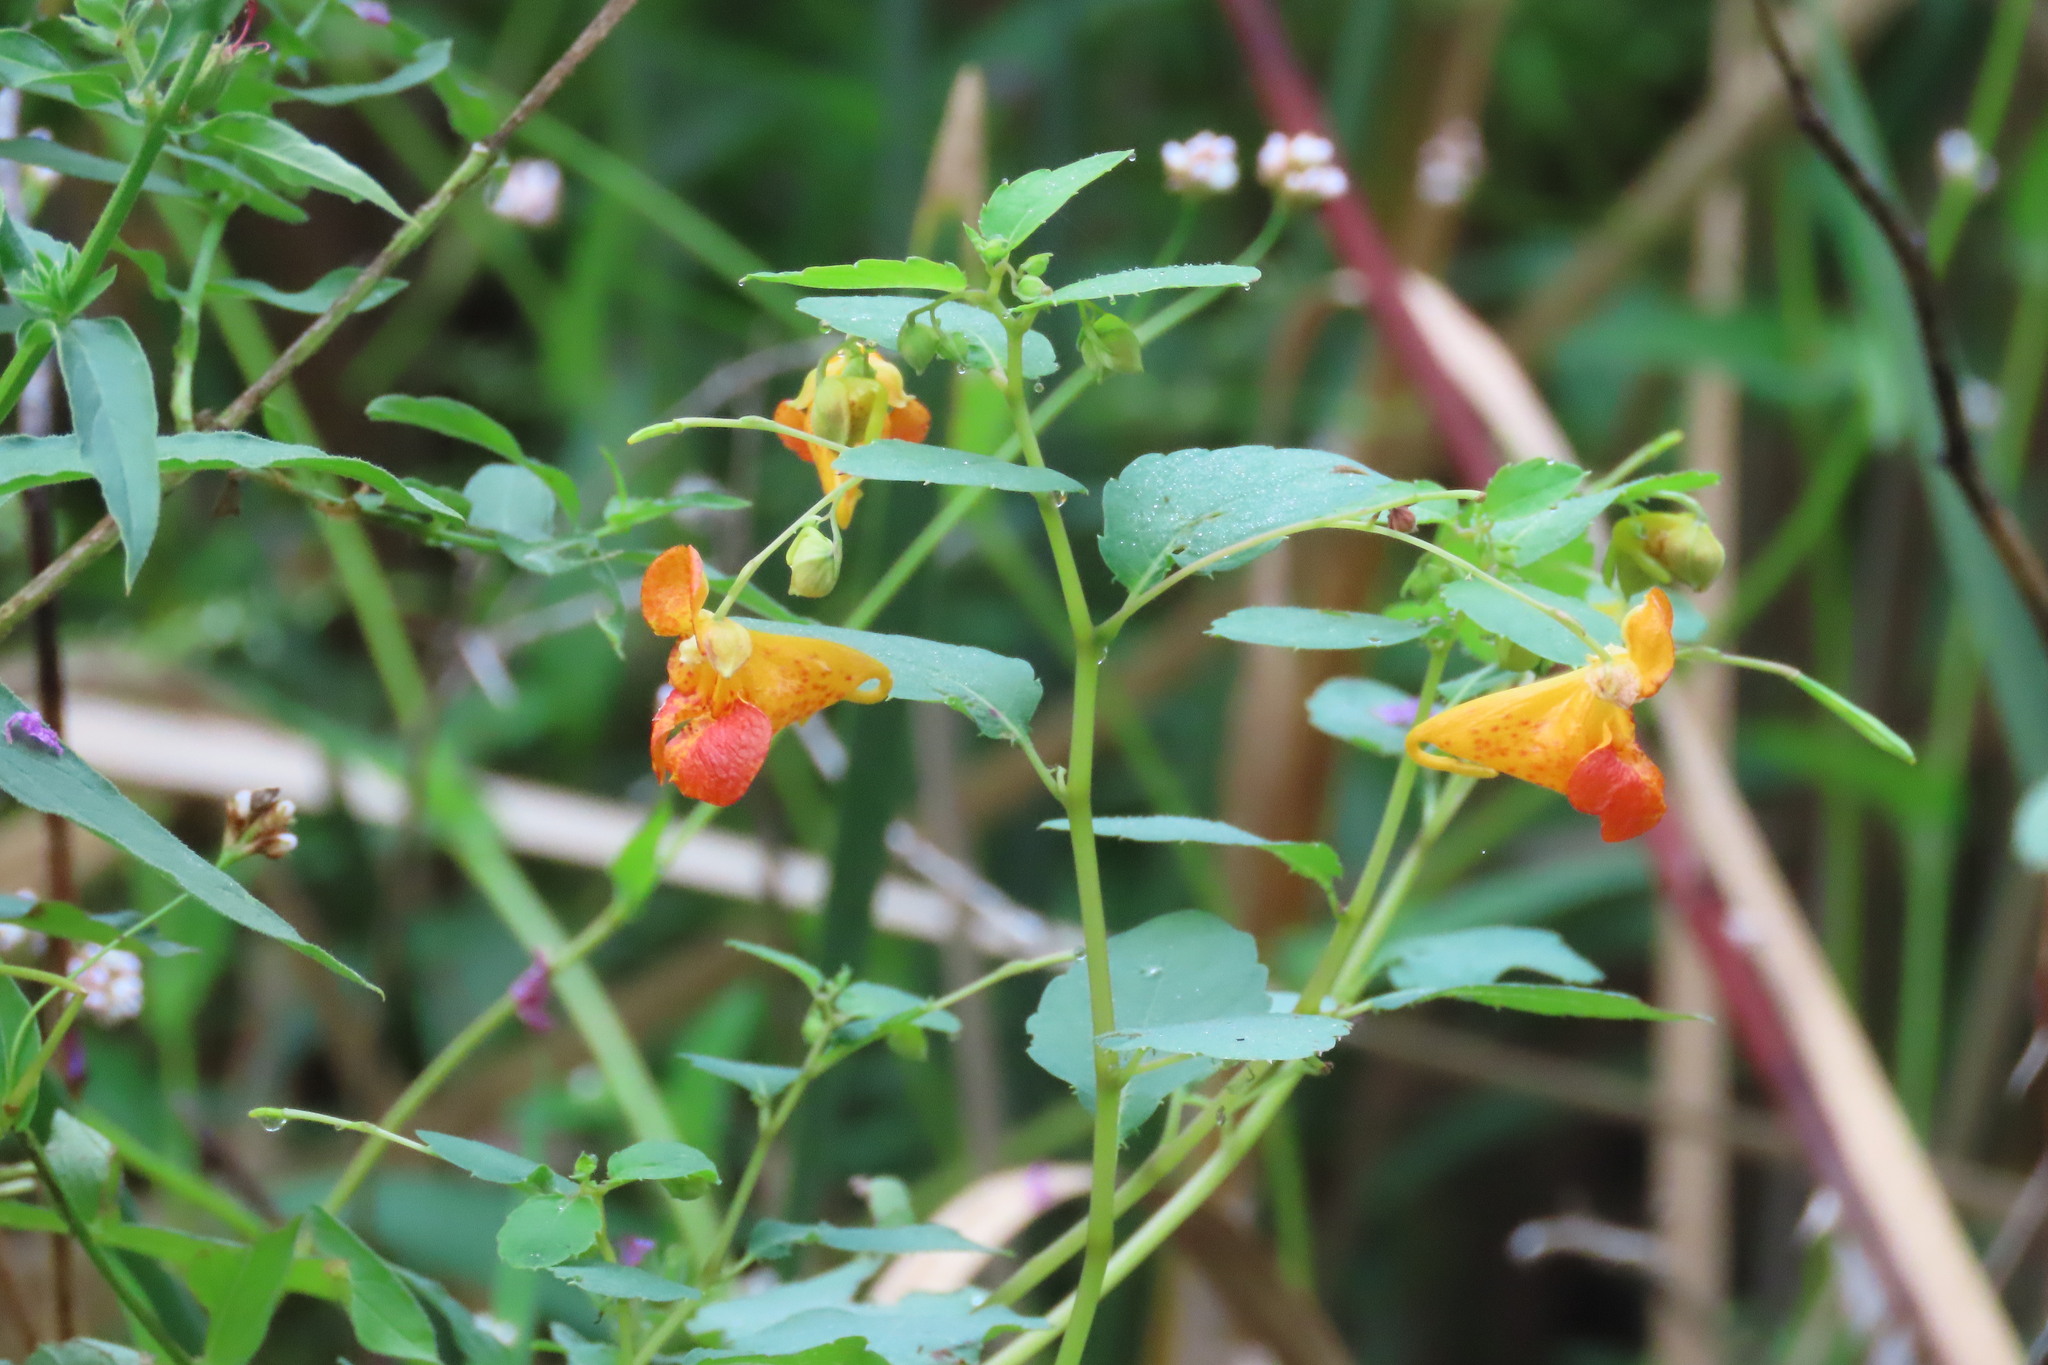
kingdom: Plantae
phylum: Tracheophyta
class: Magnoliopsida
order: Ericales
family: Balsaminaceae
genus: Impatiens
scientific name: Impatiens capensis
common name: Orange balsam
